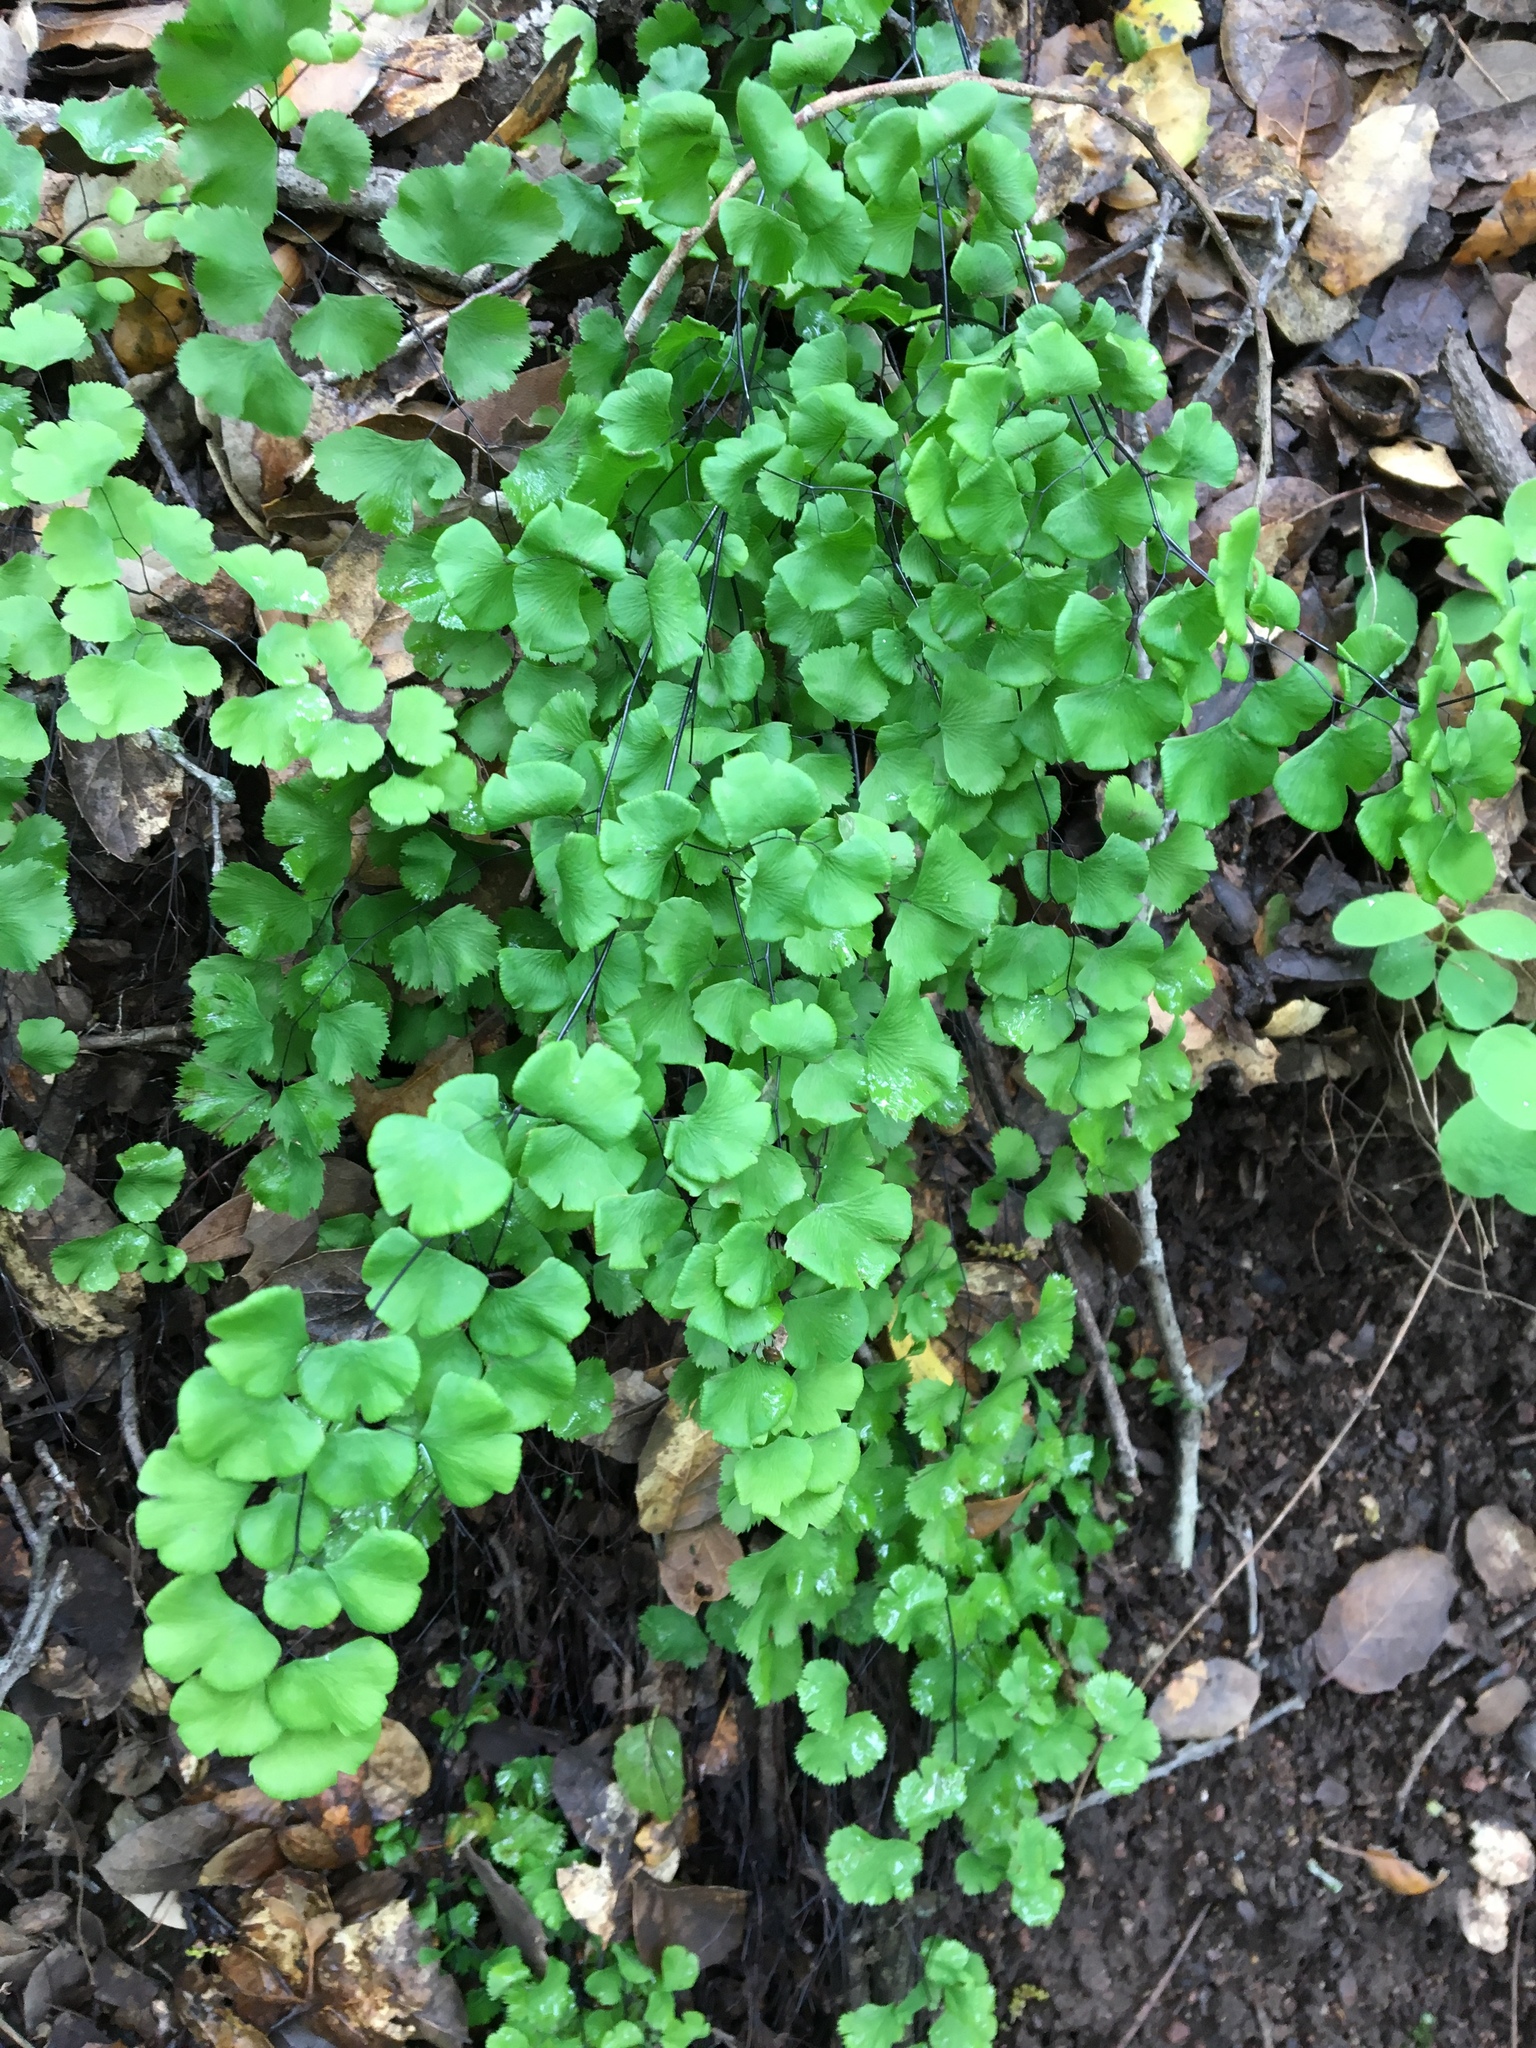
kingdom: Plantae
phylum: Tracheophyta
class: Polypodiopsida
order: Polypodiales
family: Pteridaceae
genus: Adiantum
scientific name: Adiantum jordanii
